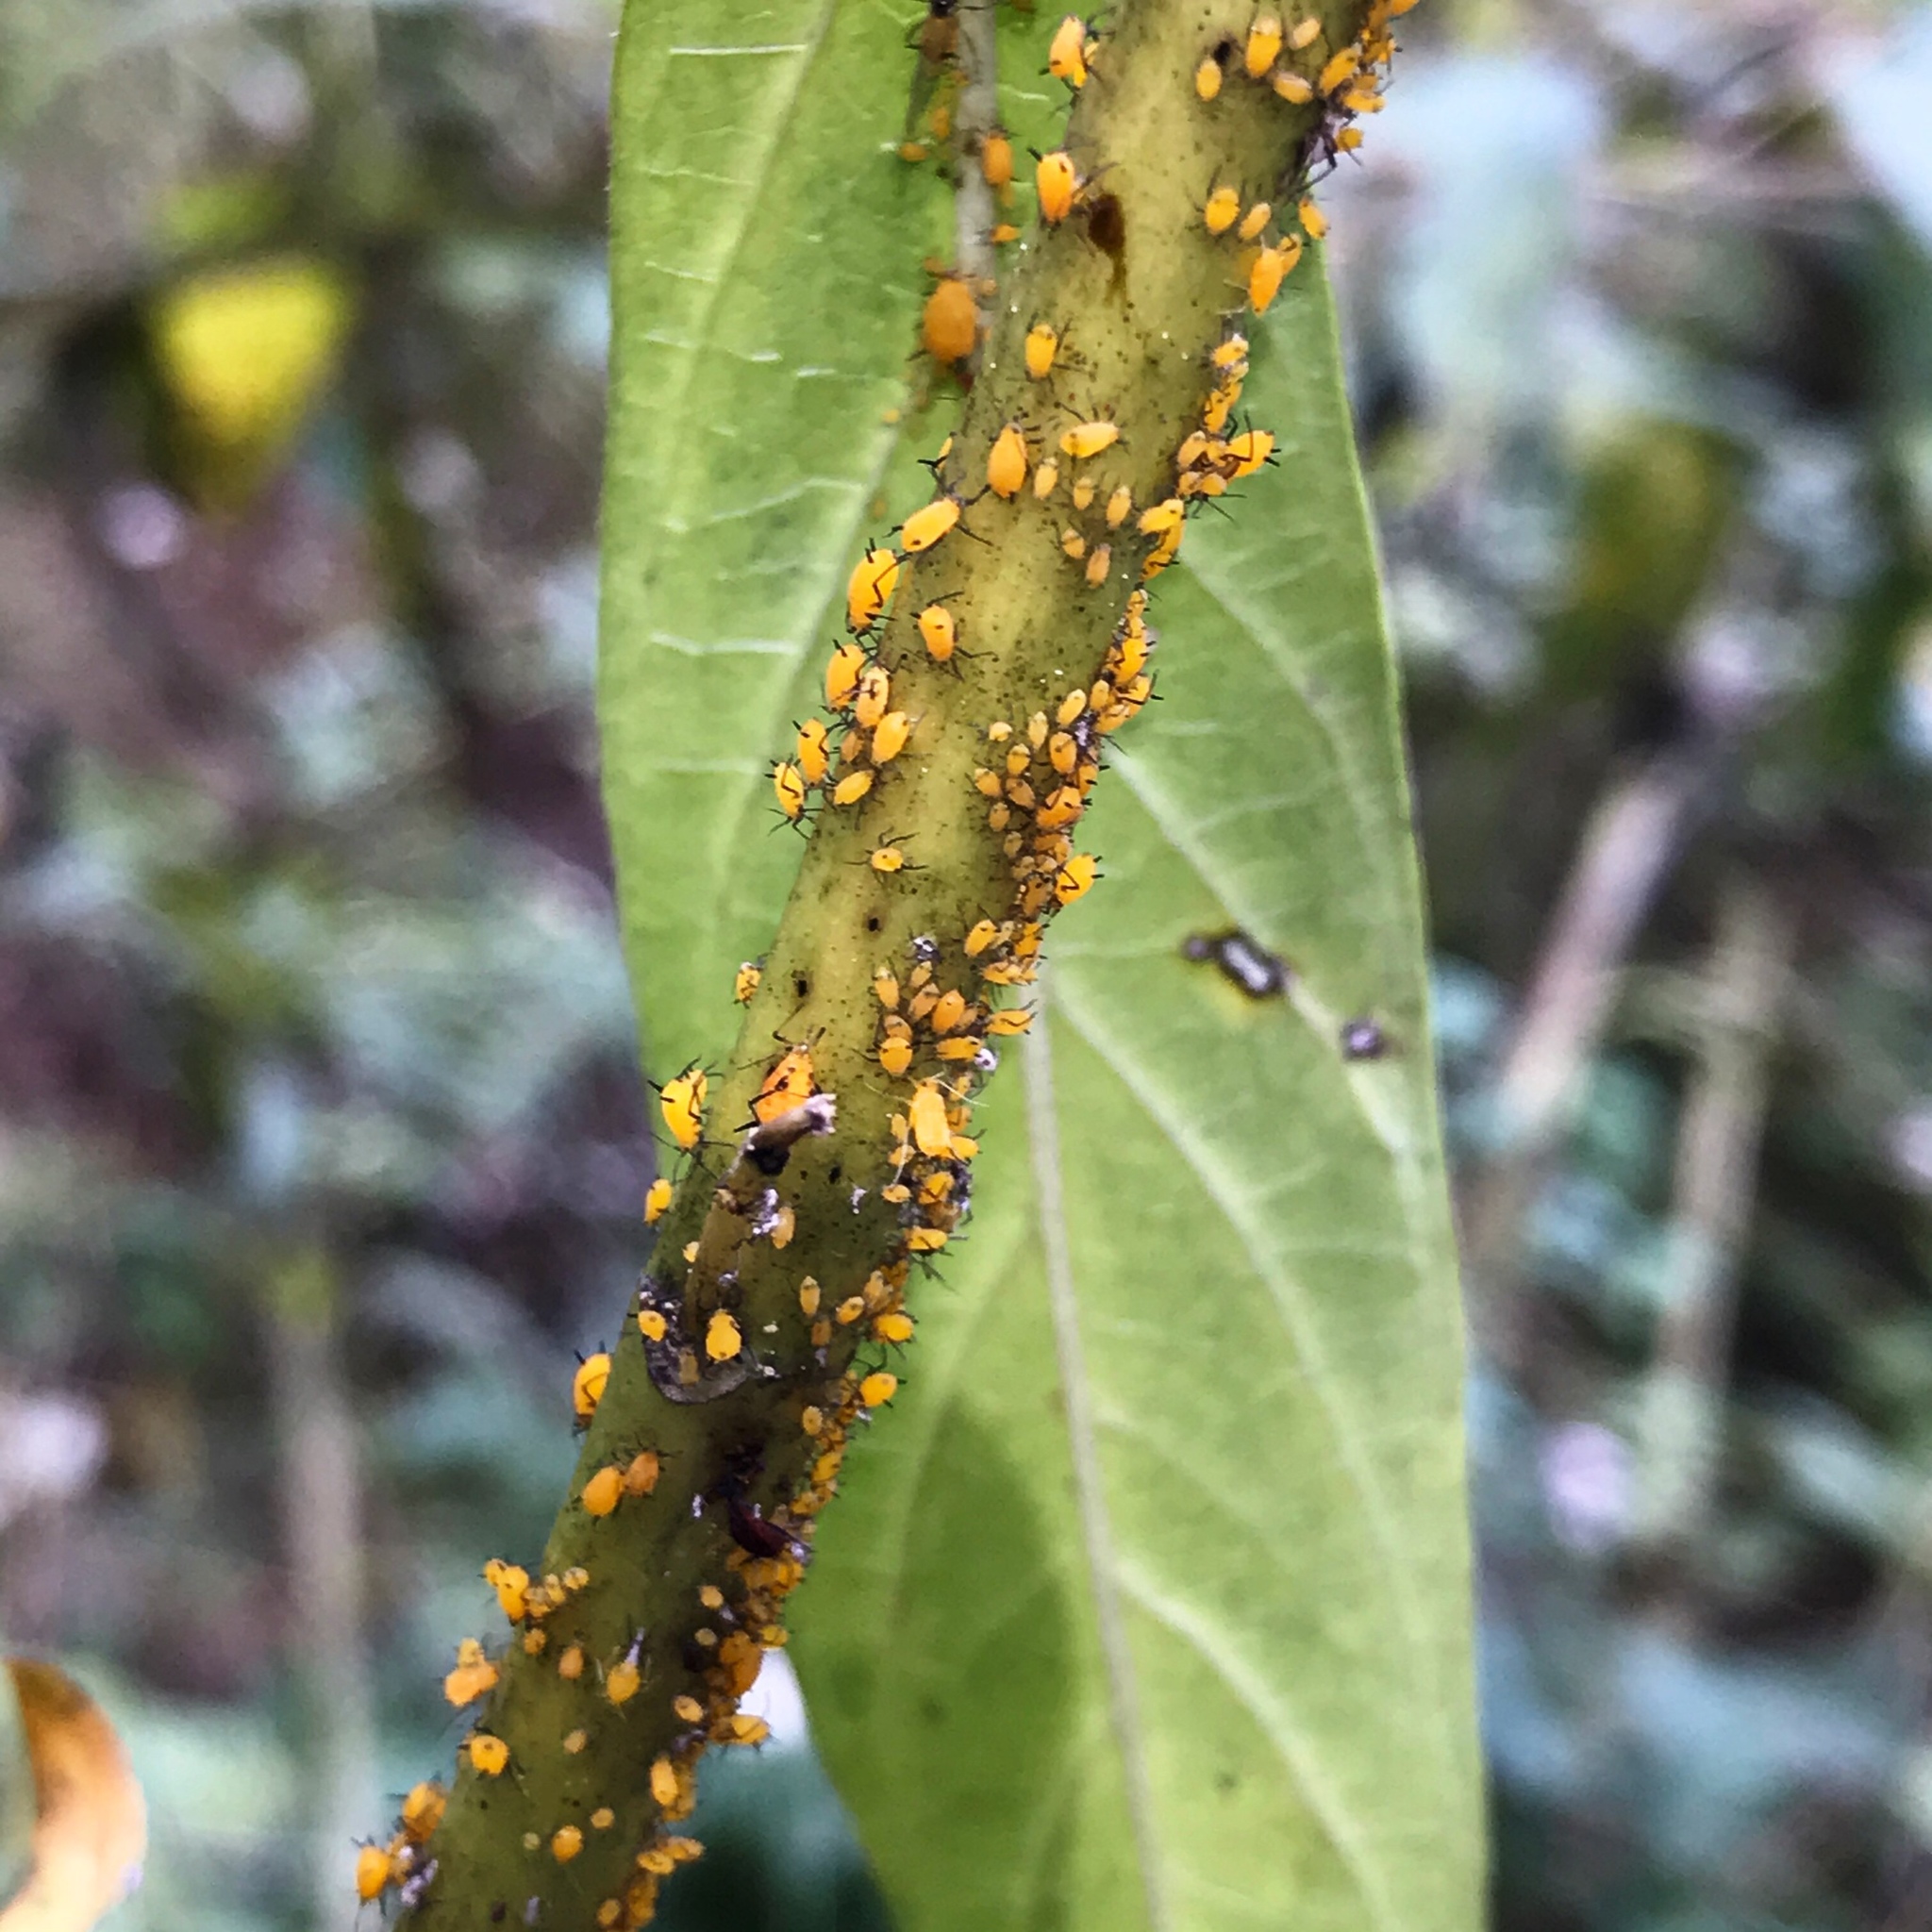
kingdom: Animalia
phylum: Arthropoda
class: Insecta
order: Hemiptera
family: Aphididae
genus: Aphis
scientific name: Aphis nerii
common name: Oleander aphid
